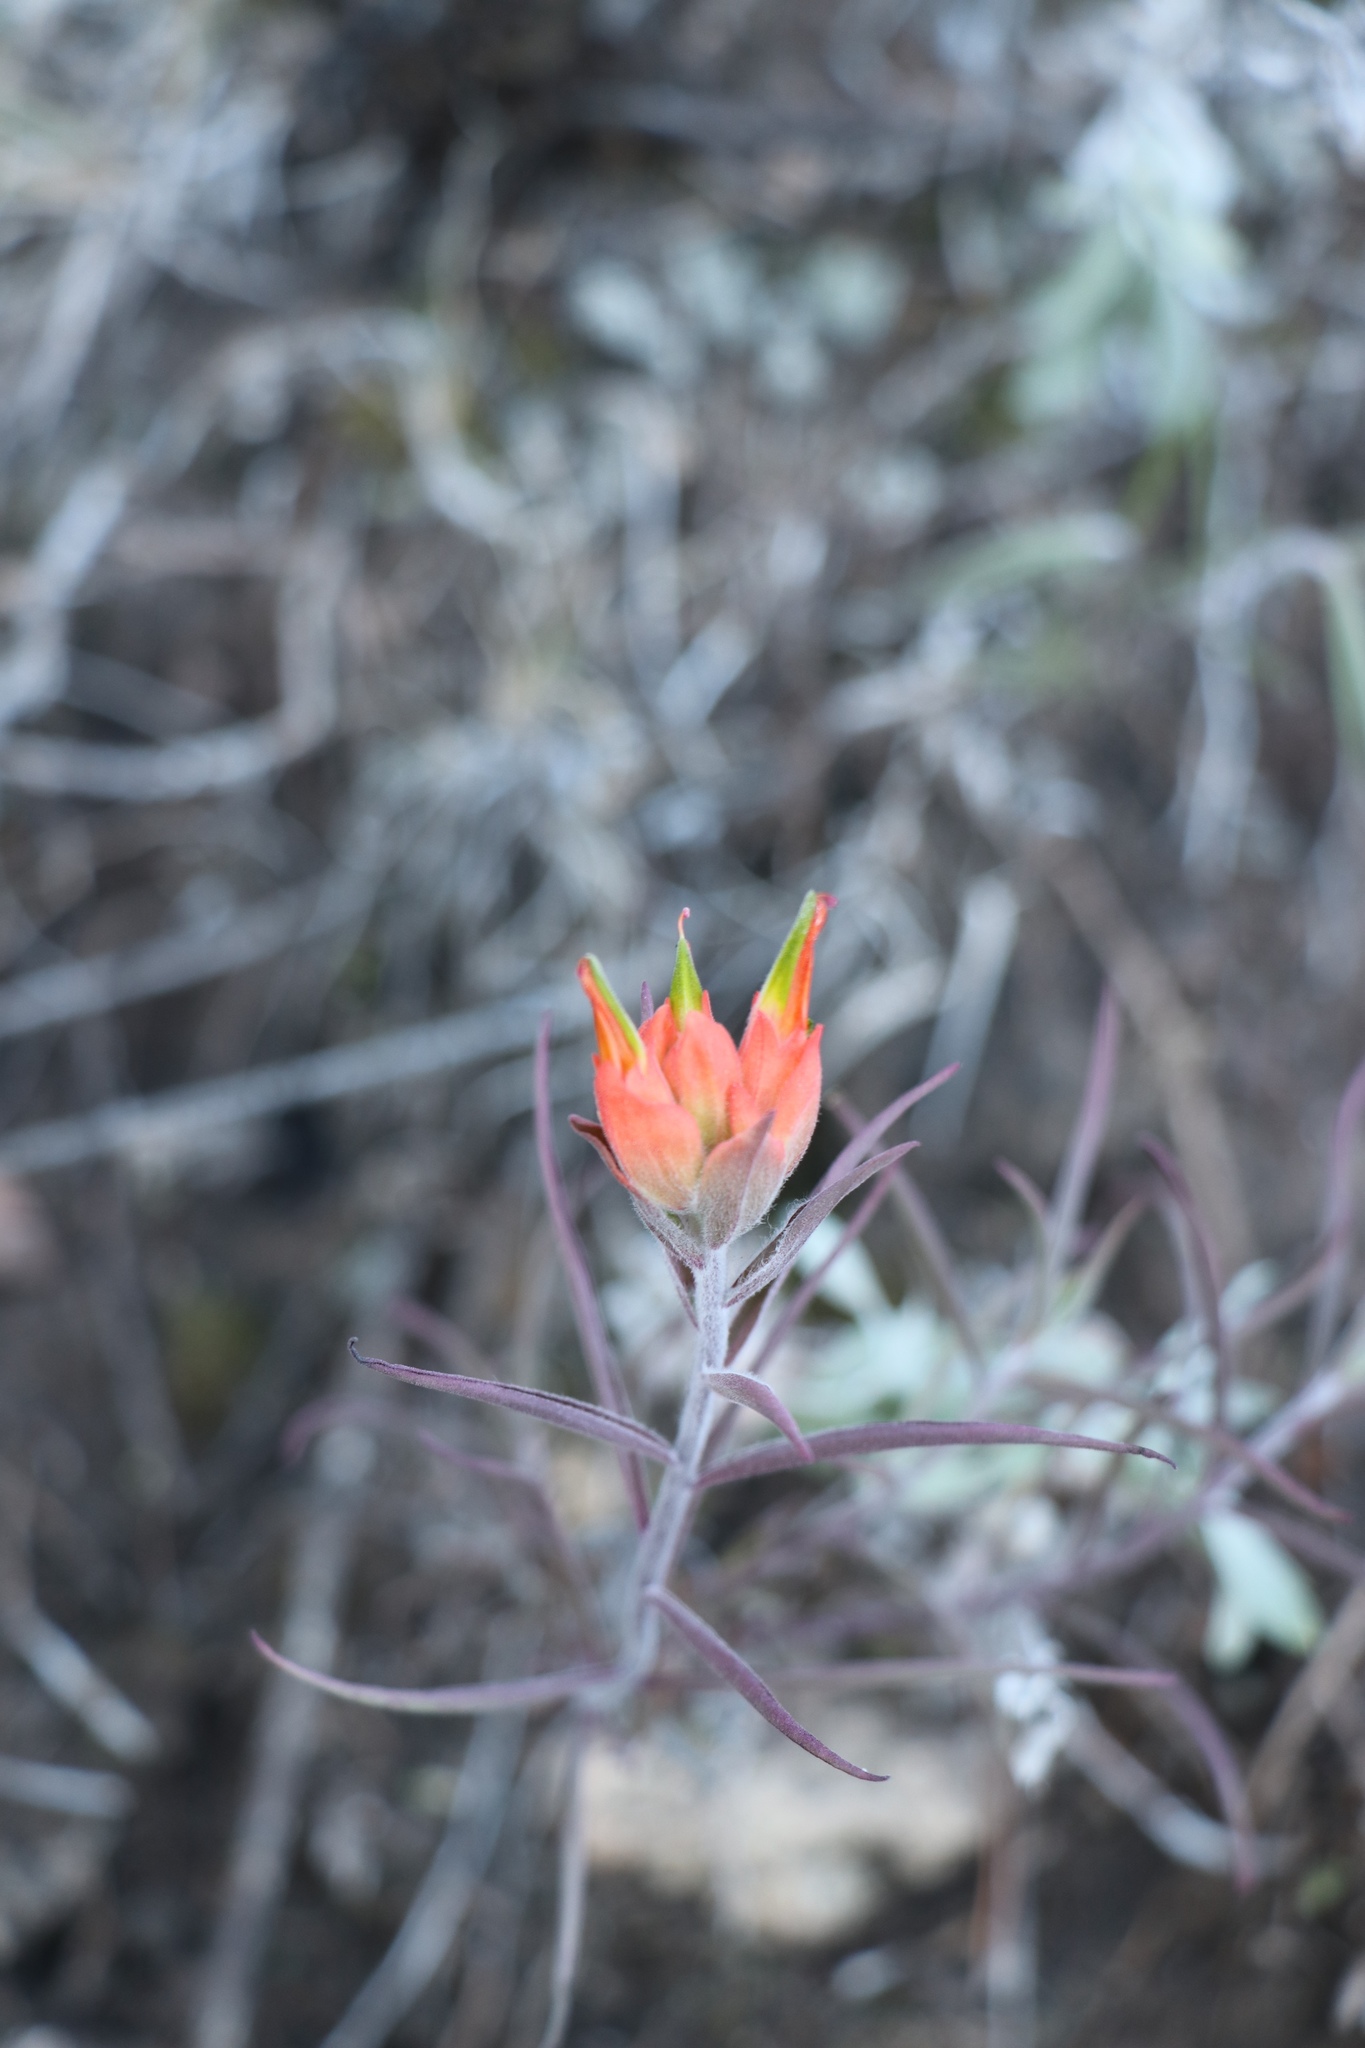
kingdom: Plantae
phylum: Tracheophyta
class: Magnoliopsida
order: Lamiales
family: Orobanchaceae
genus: Castilleja
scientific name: Castilleja lanata
